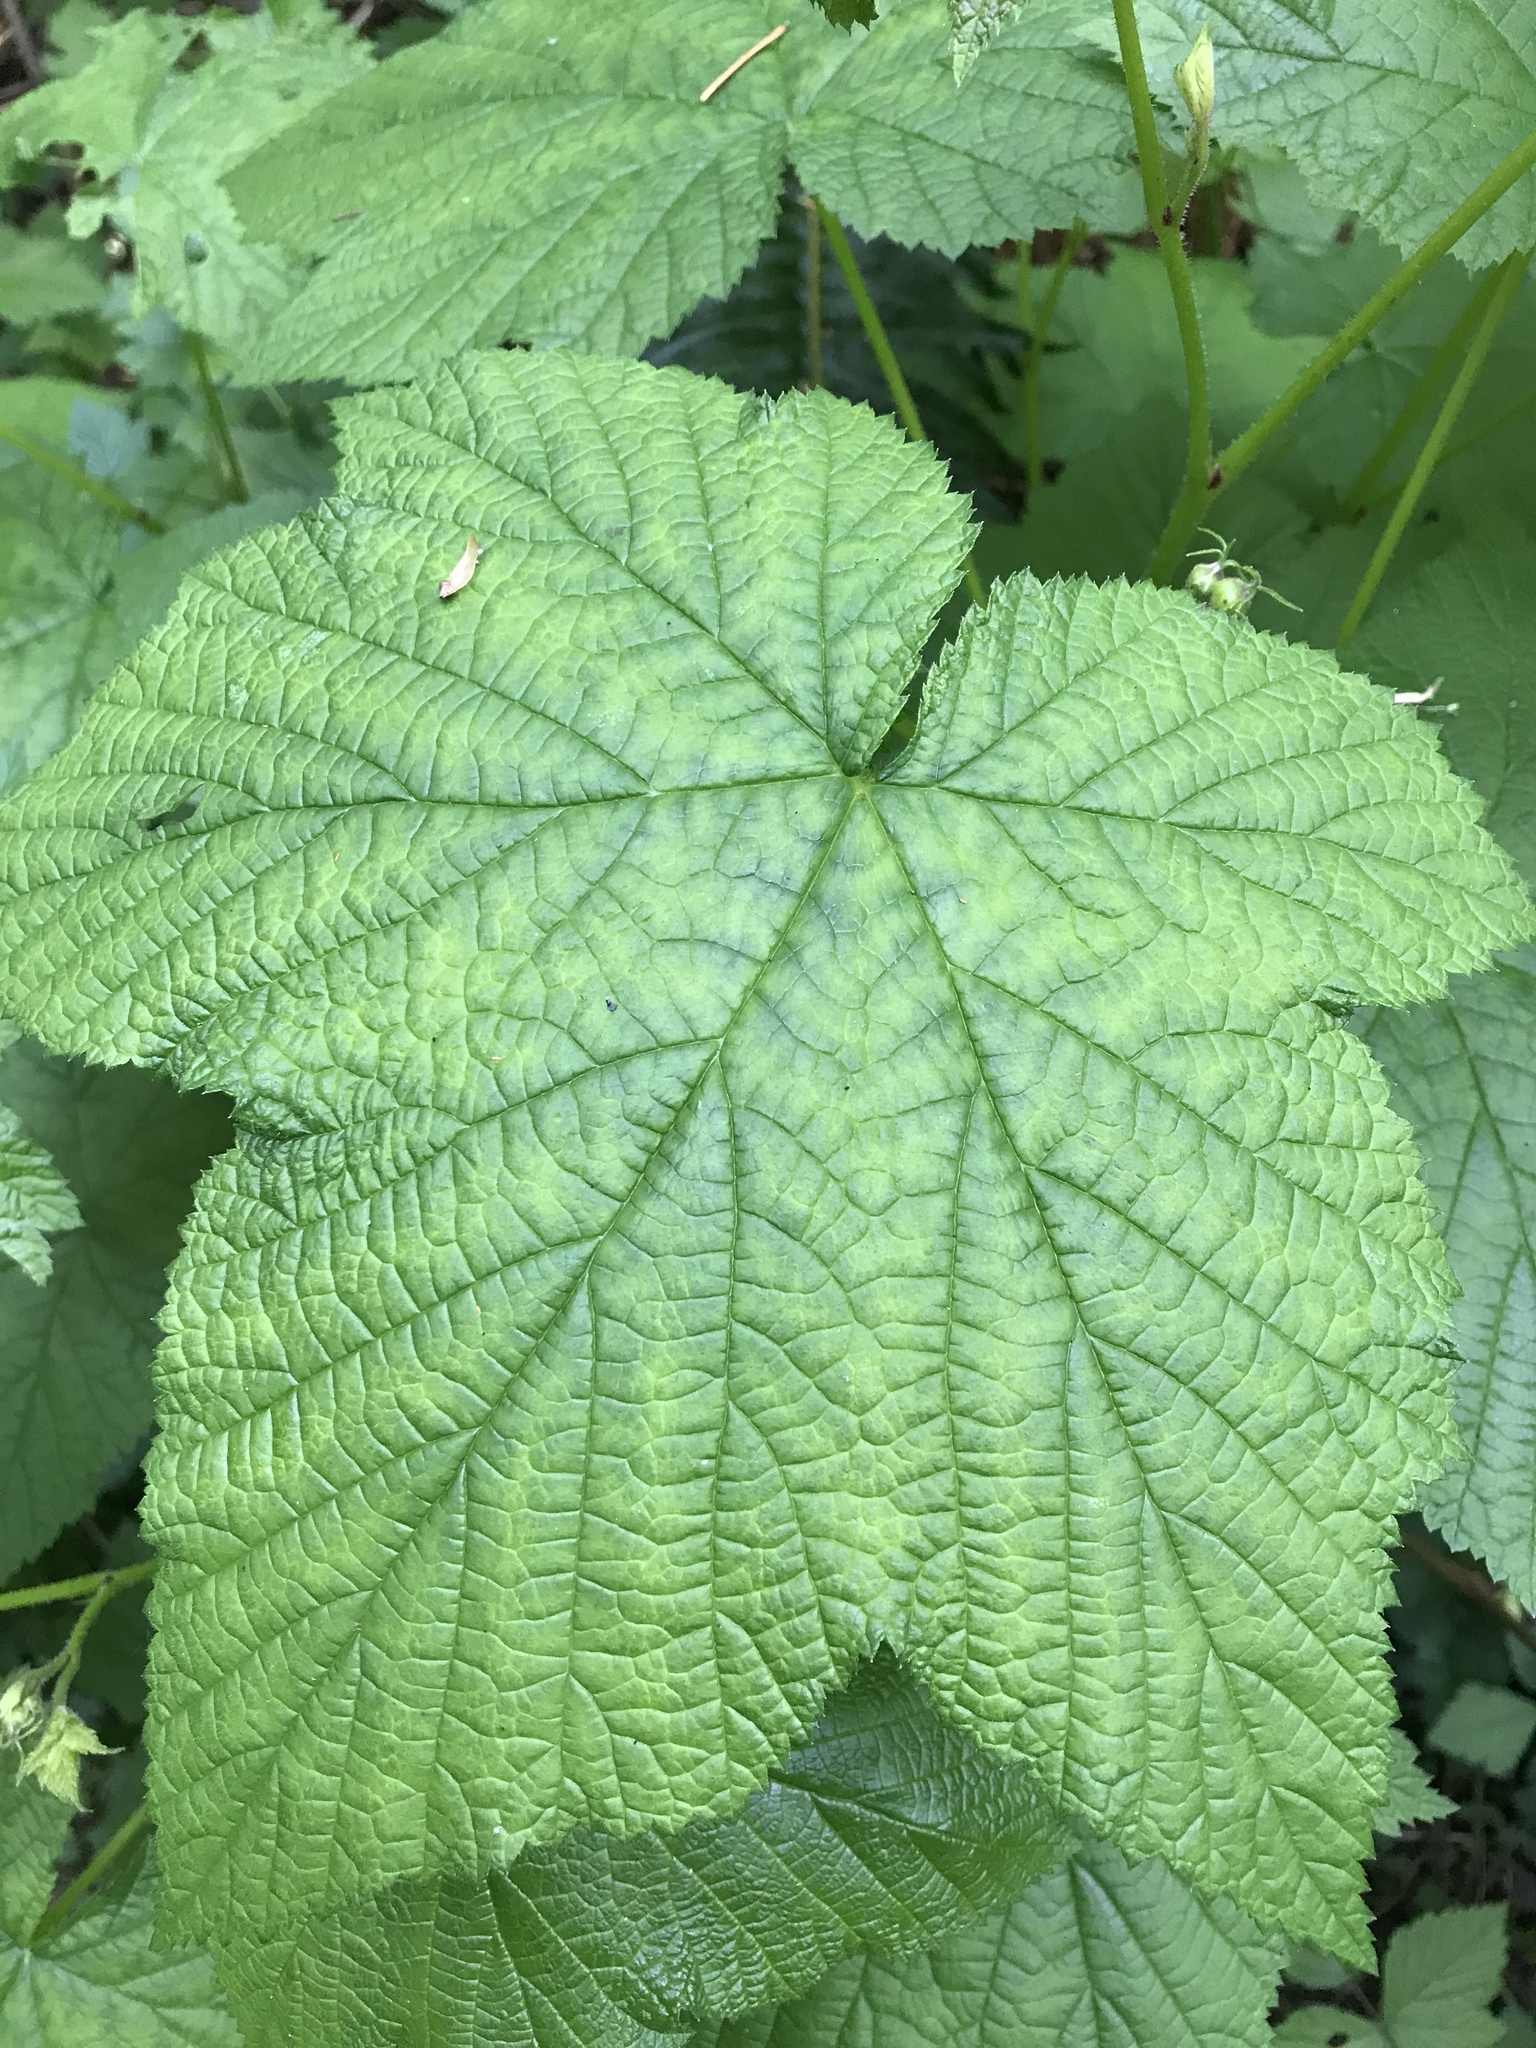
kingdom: Plantae
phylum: Tracheophyta
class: Magnoliopsida
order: Rosales
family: Rosaceae
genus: Rubus
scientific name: Rubus parviflorus
